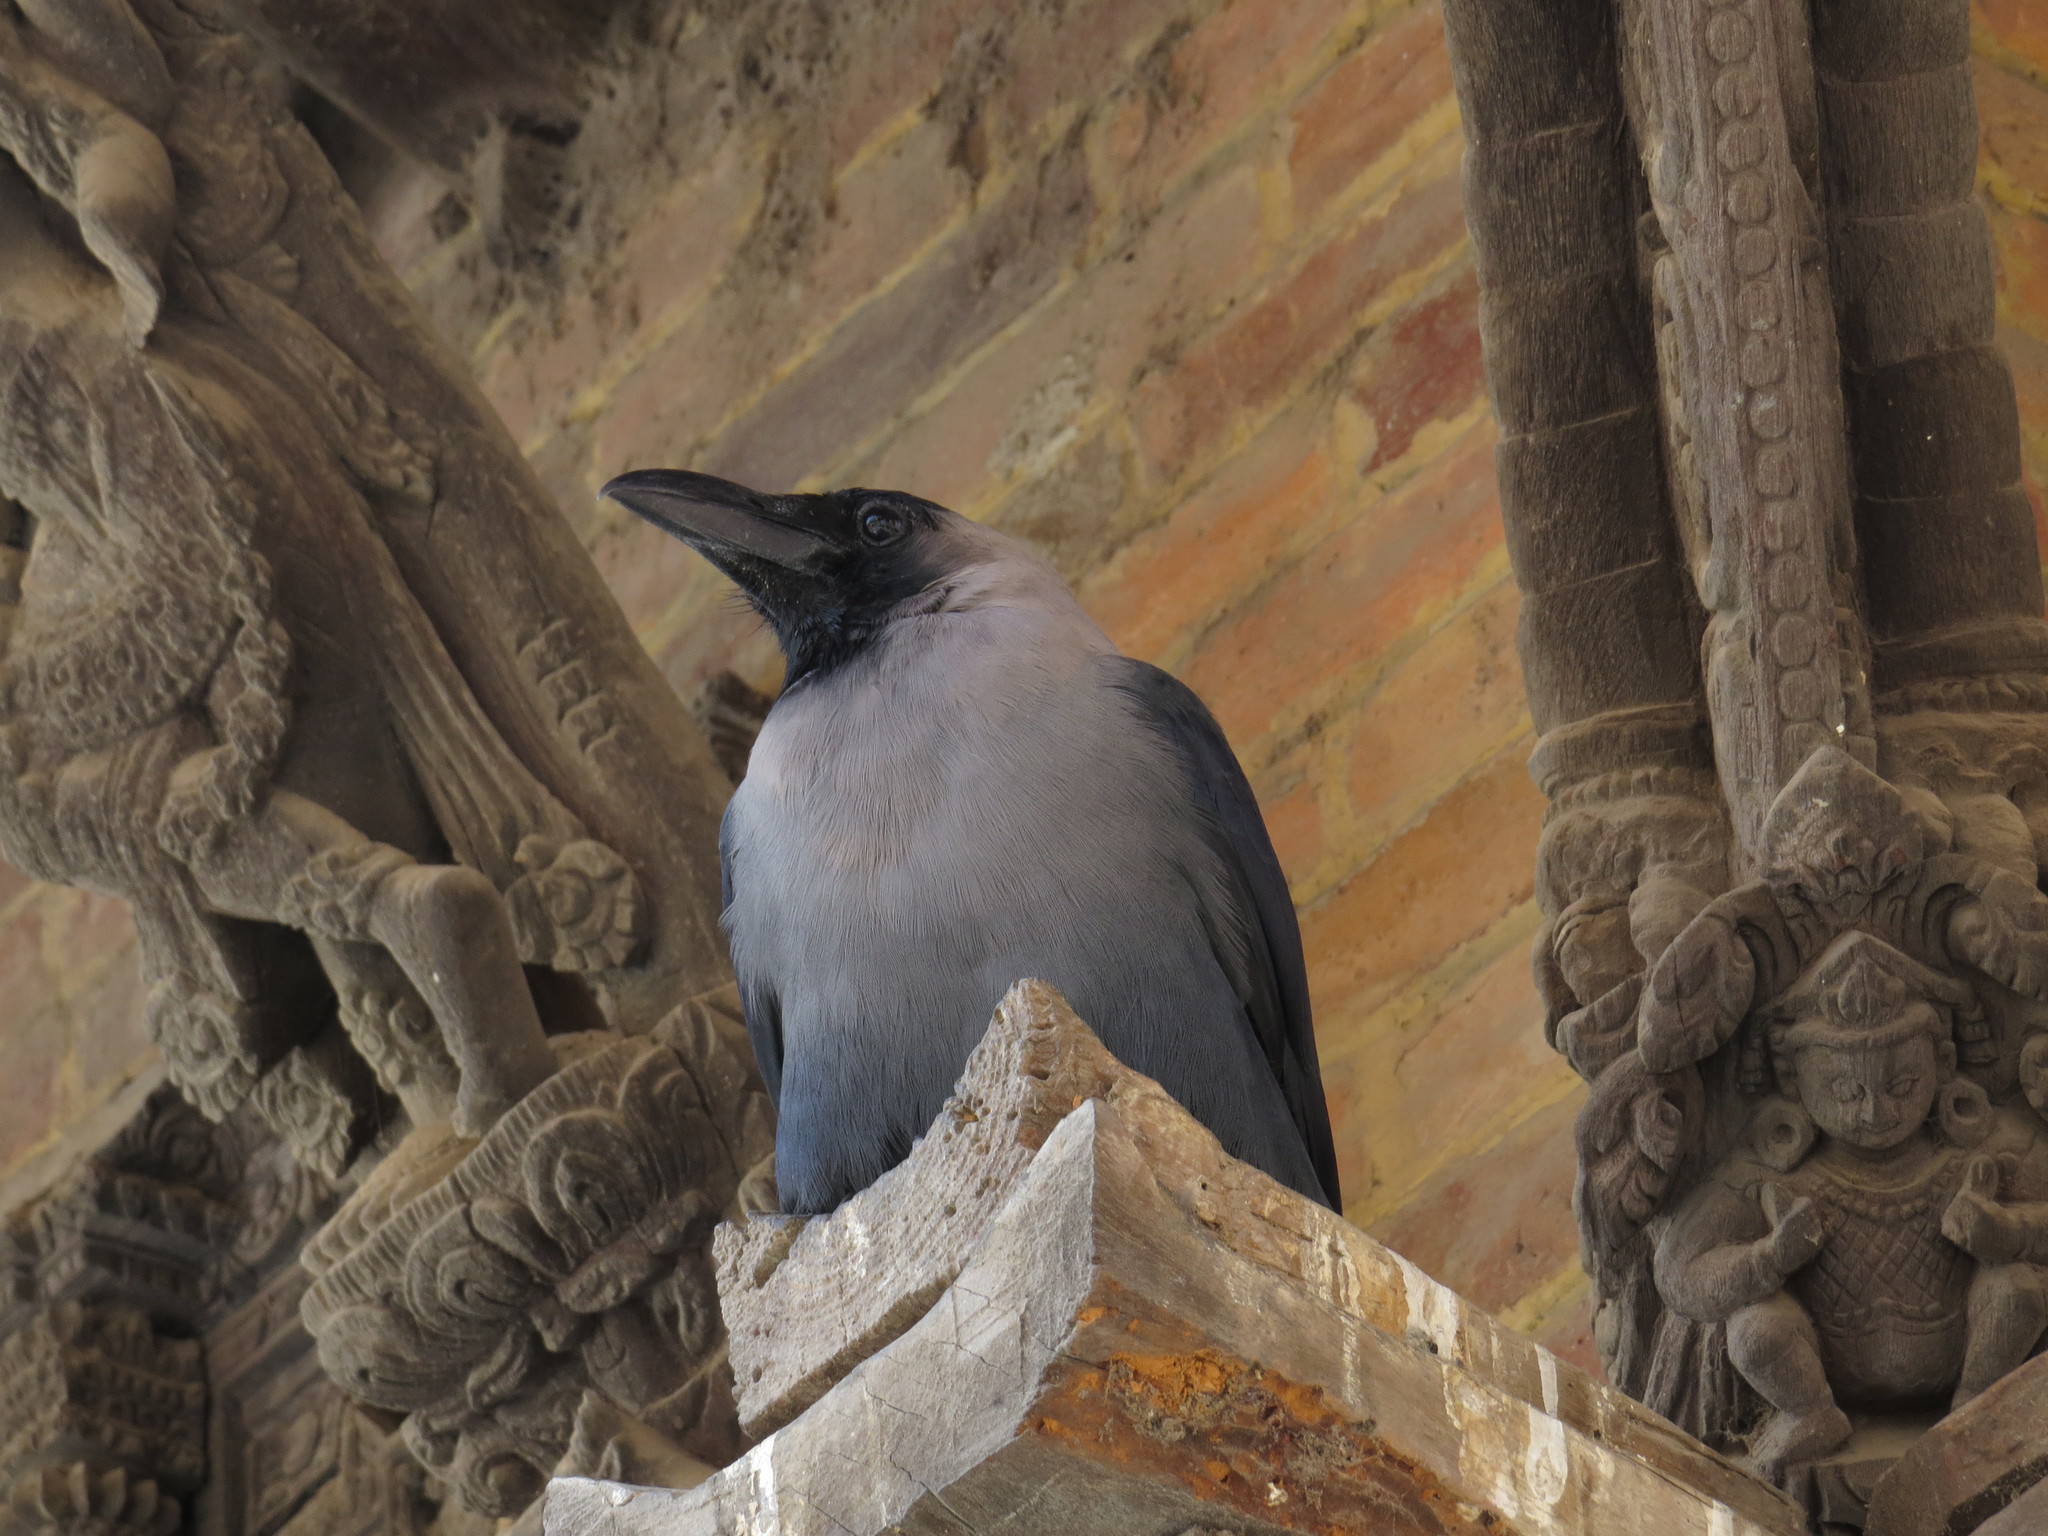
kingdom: Animalia
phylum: Chordata
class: Aves
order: Passeriformes
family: Corvidae
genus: Corvus
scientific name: Corvus splendens
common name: House crow
